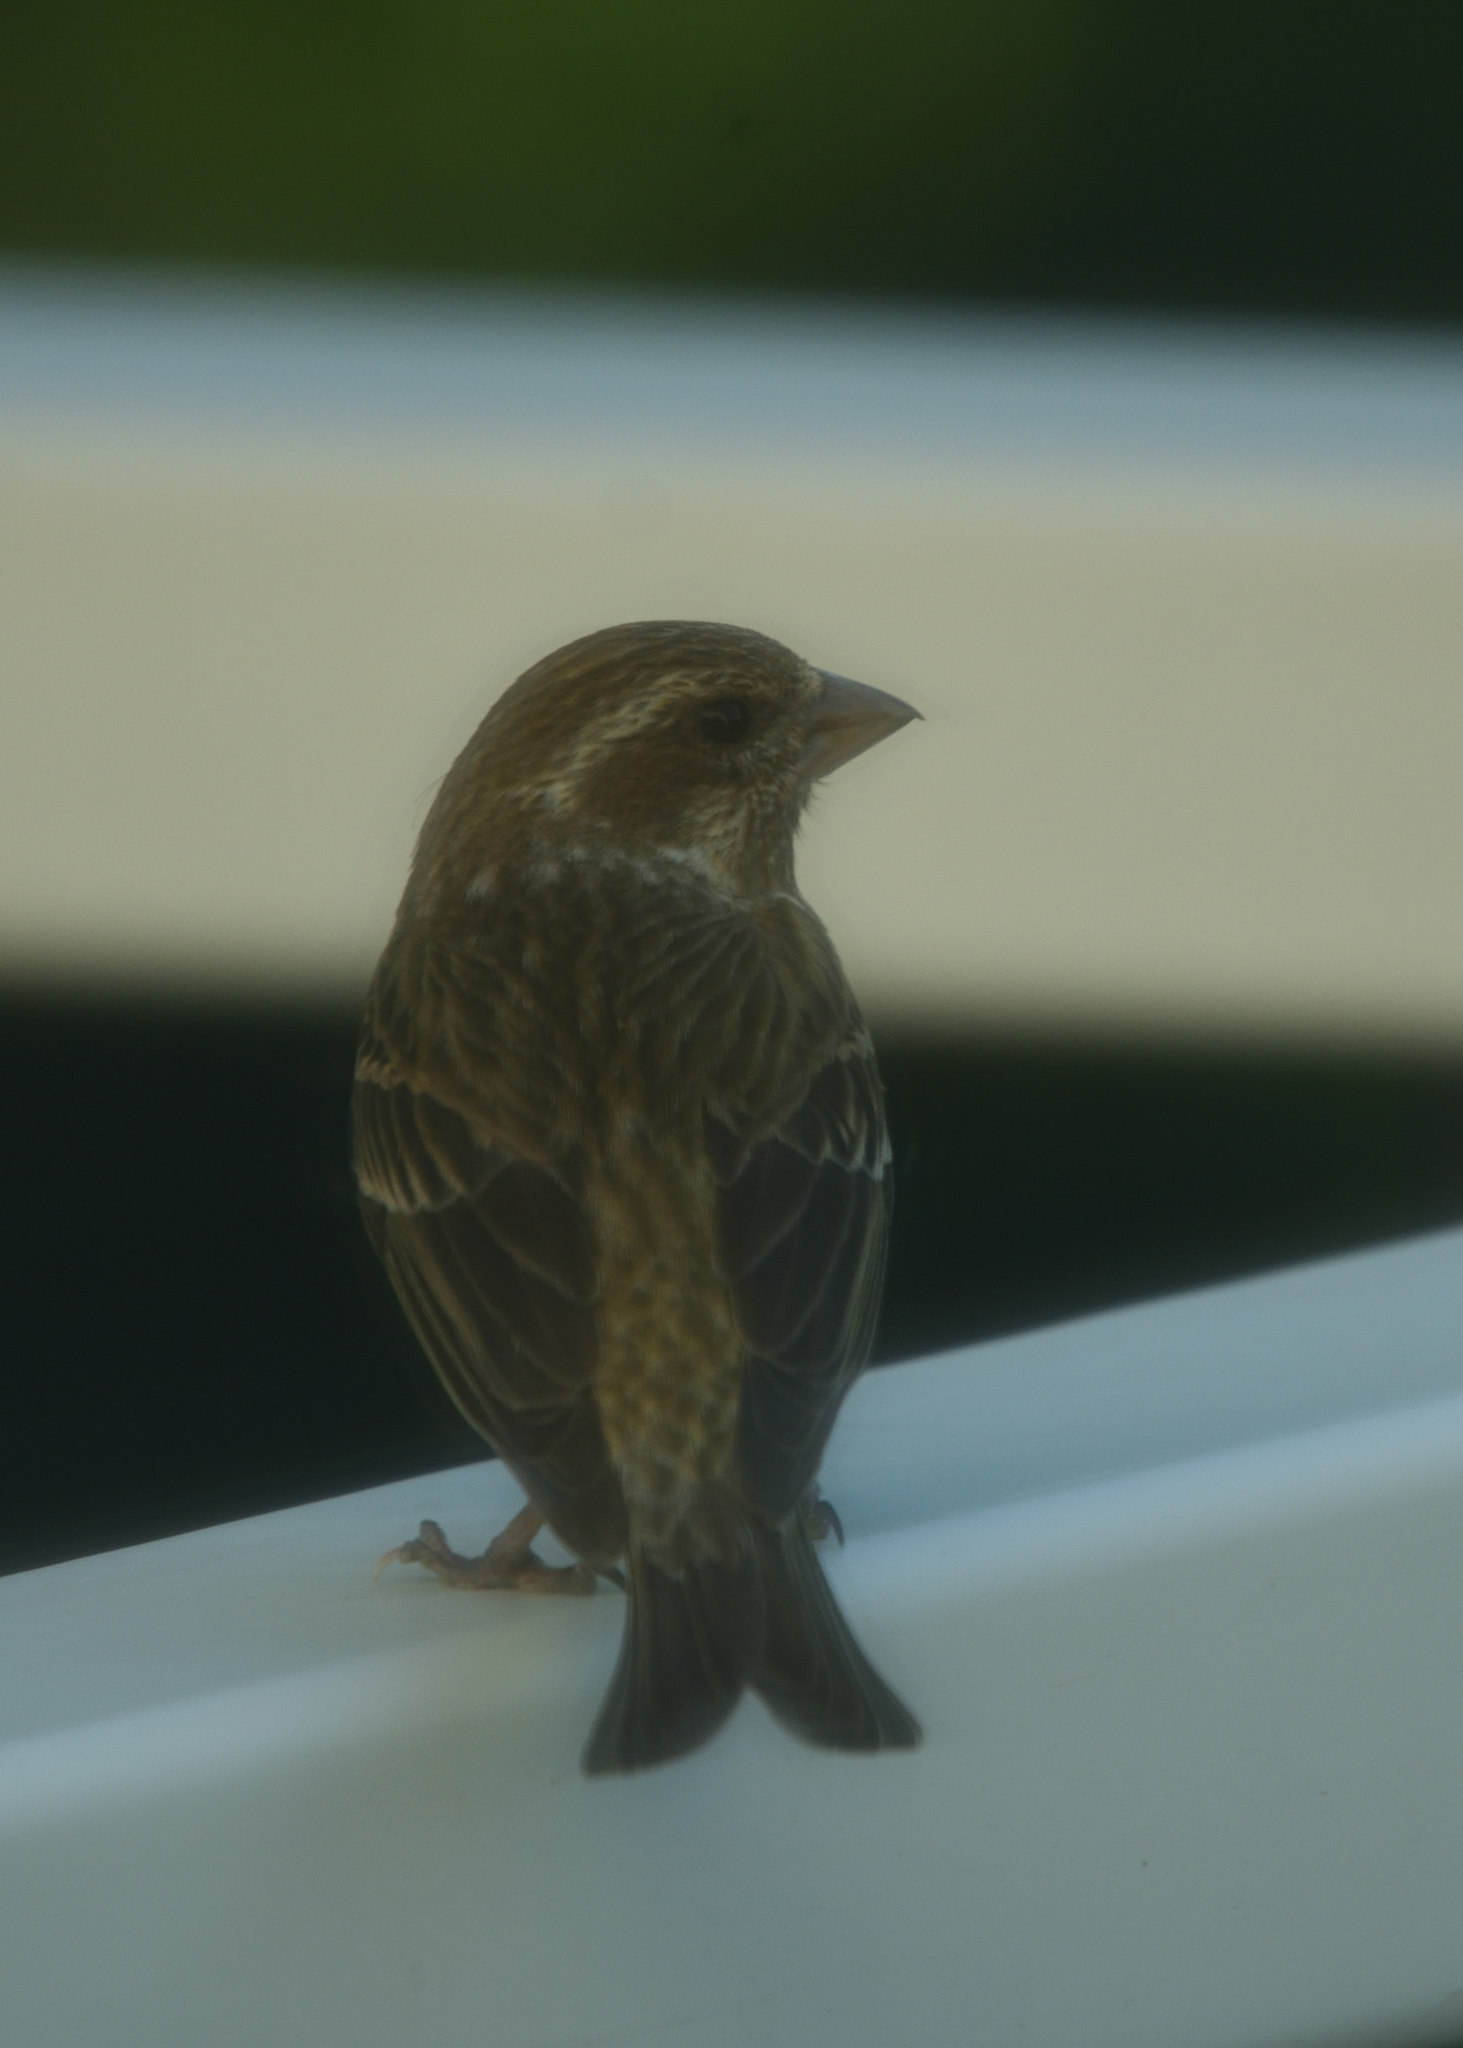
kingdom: Animalia
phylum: Chordata
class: Aves
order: Passeriformes
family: Fringillidae
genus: Haemorhous
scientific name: Haemorhous purpureus
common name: Purple finch
